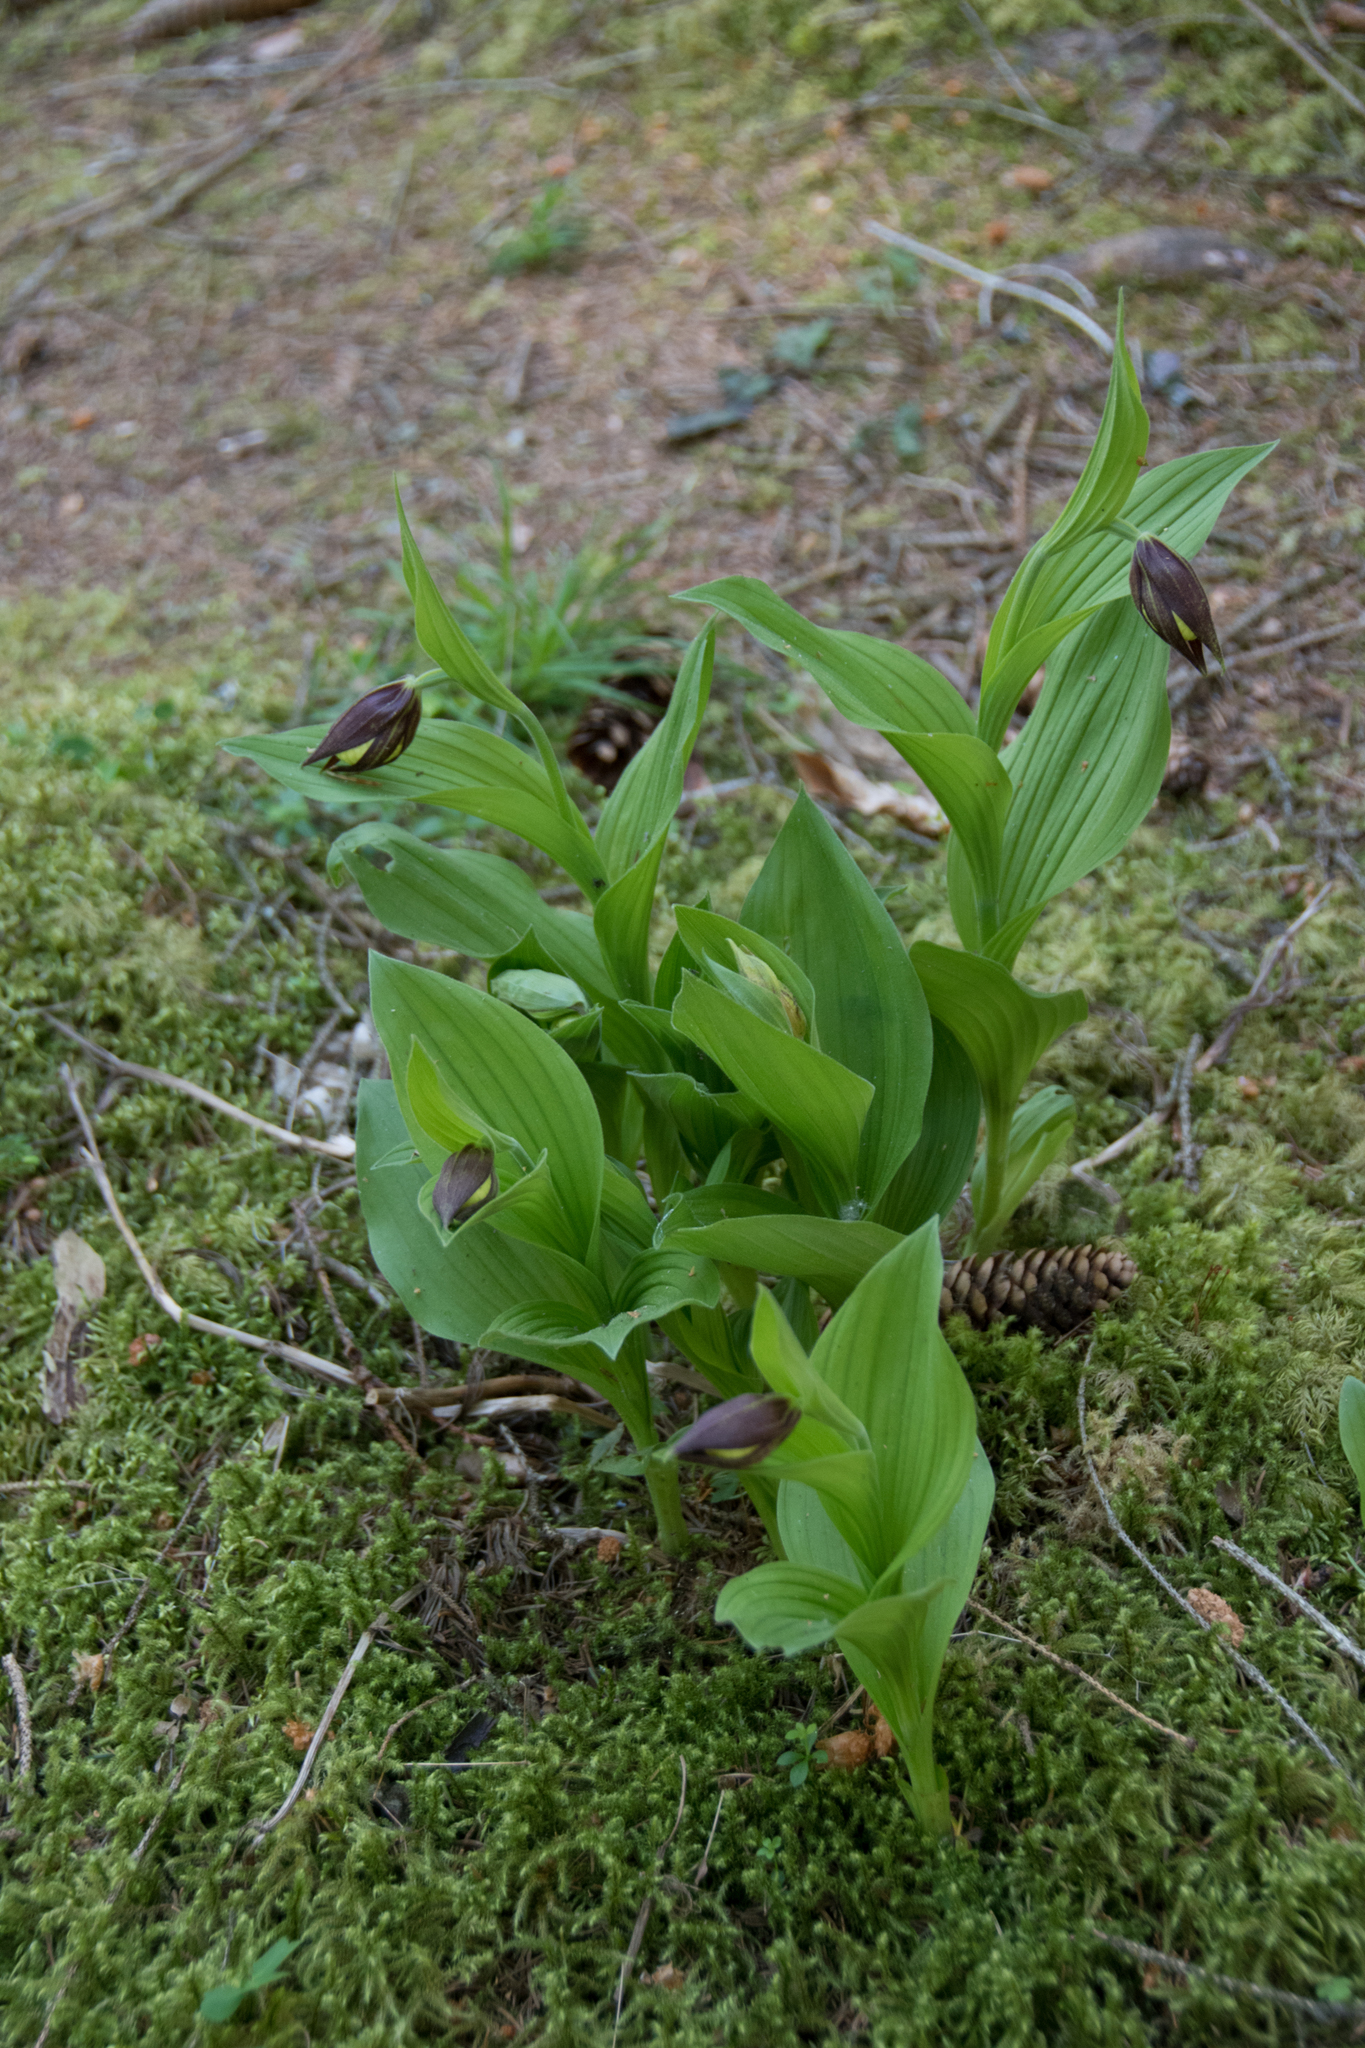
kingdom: Plantae
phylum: Tracheophyta
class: Liliopsida
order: Asparagales
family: Orchidaceae
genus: Cypripedium
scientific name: Cypripedium calceolus
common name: Lady's-slipper
